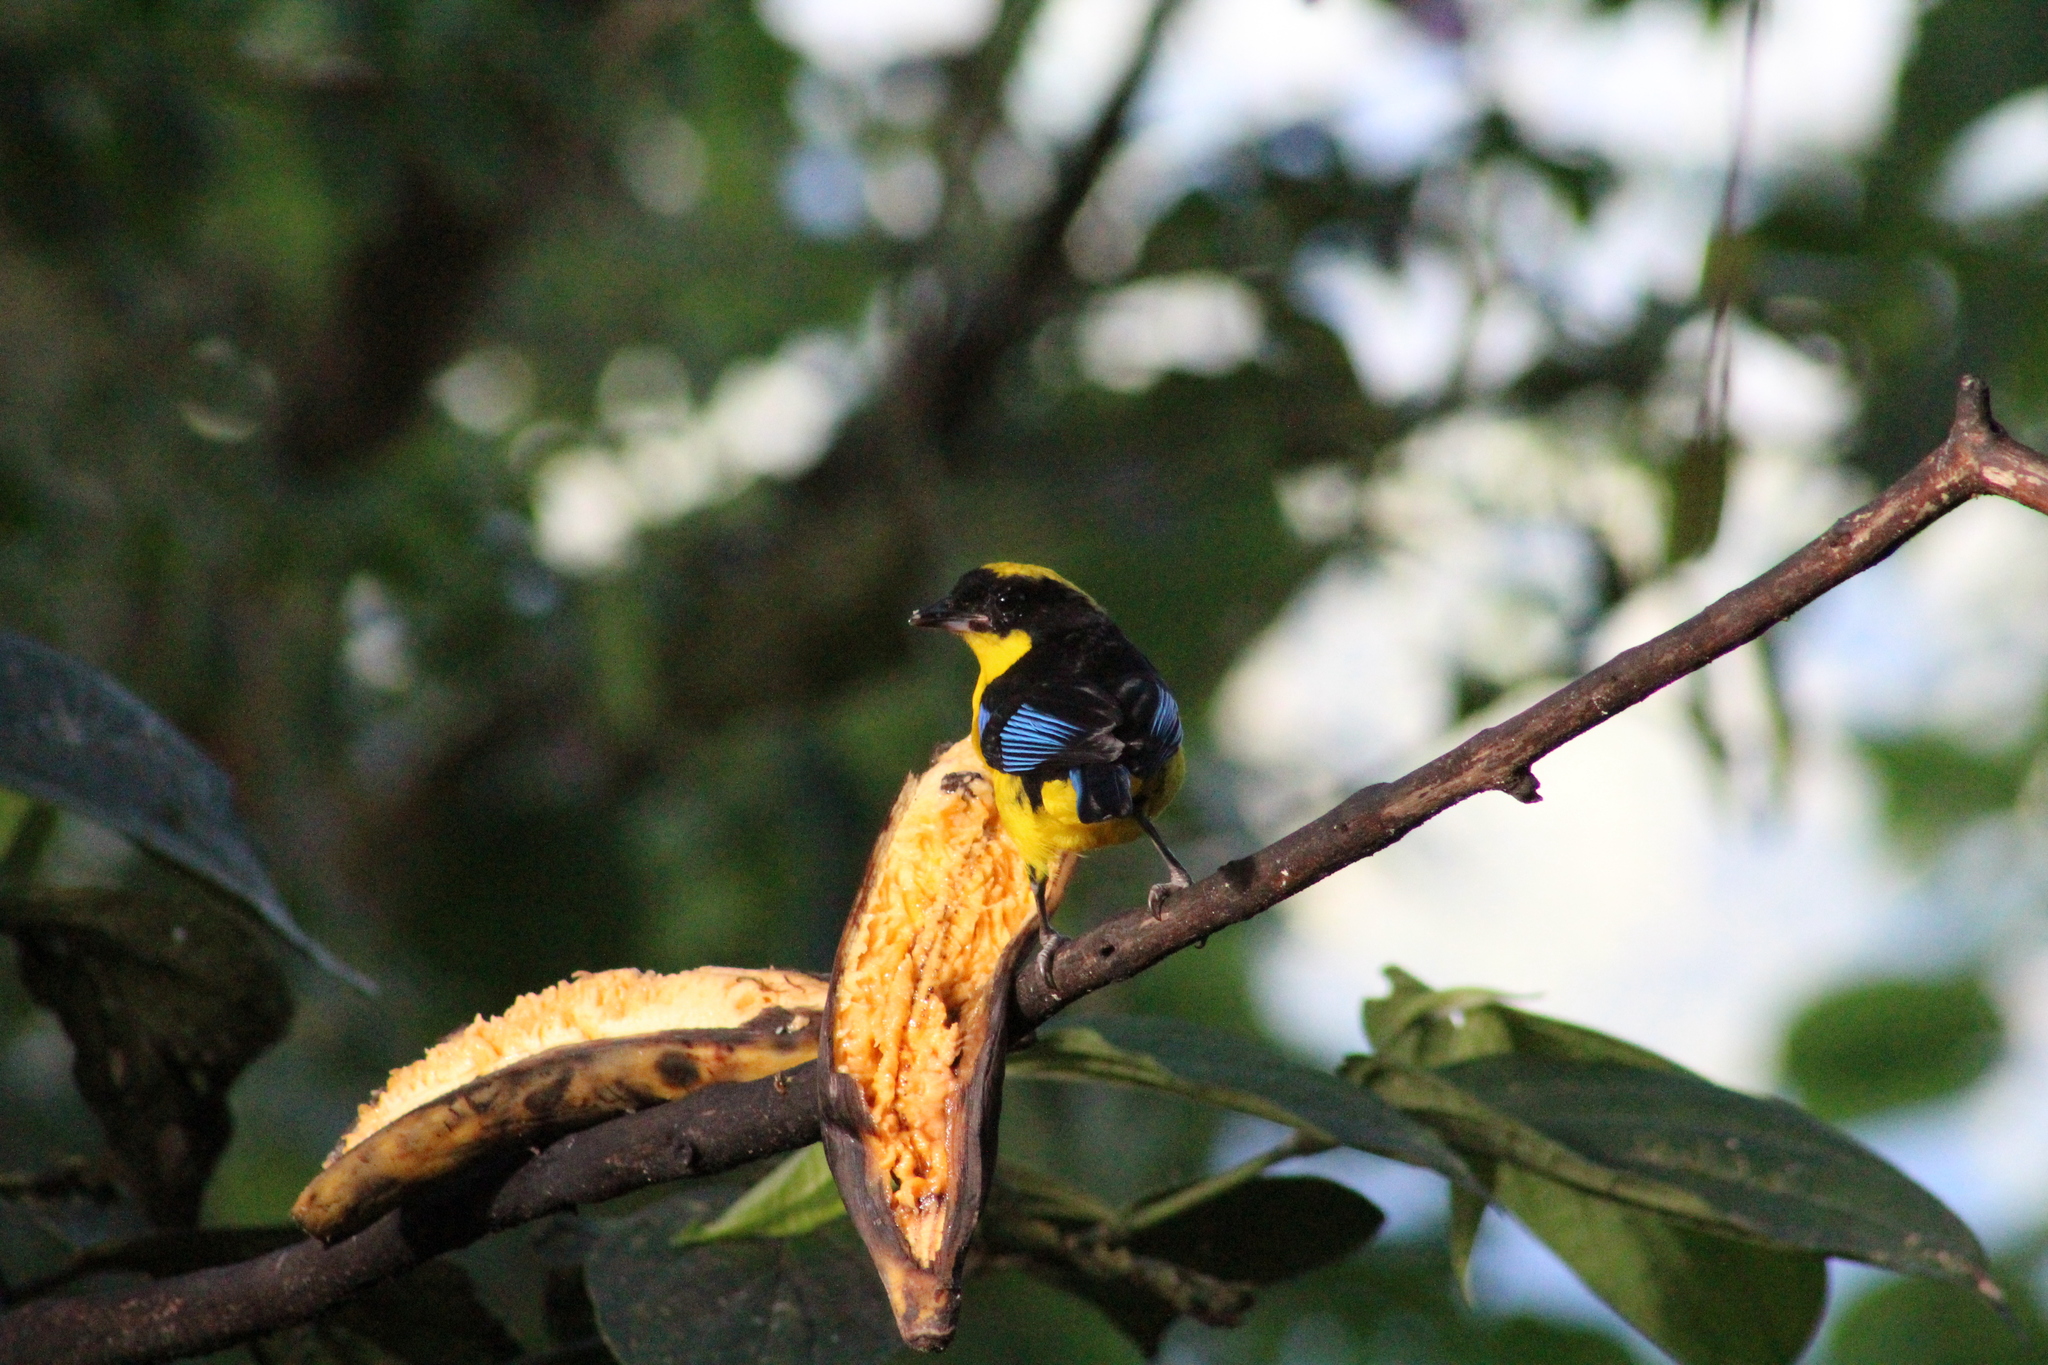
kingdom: Animalia
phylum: Chordata
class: Aves
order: Passeriformes
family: Thraupidae
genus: Anisognathus
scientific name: Anisognathus somptuosus
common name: Blue-winged mountain-tanager
